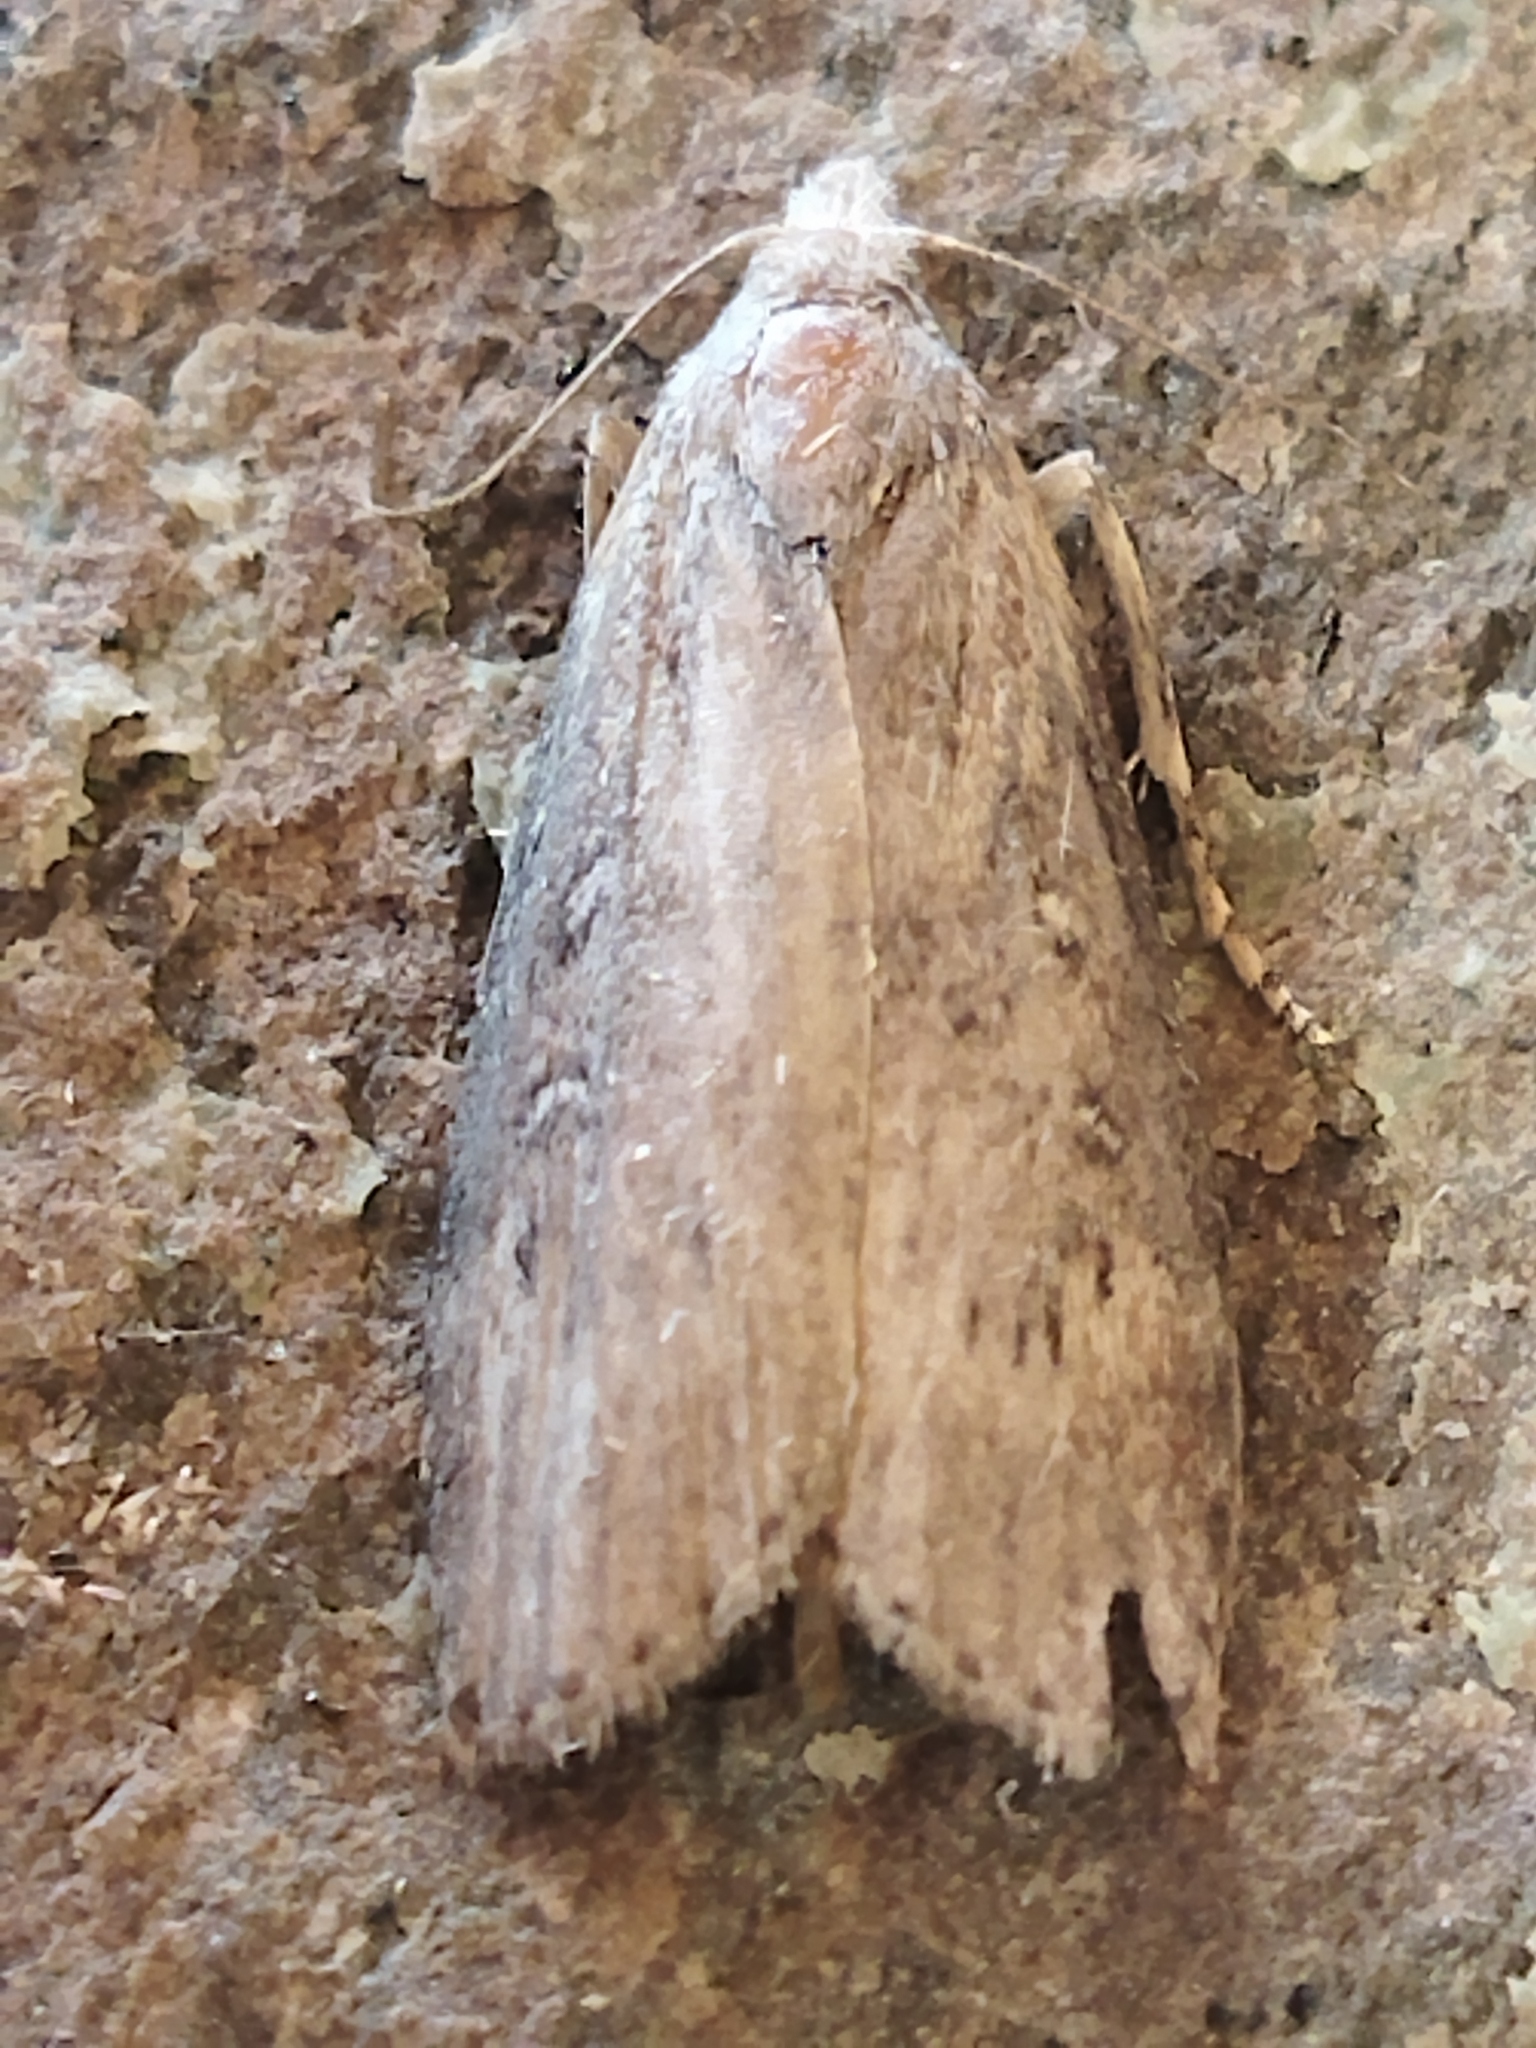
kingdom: Animalia
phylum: Arthropoda
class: Insecta
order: Lepidoptera
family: Pyralidae
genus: Lamoria
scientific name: Lamoria anella
